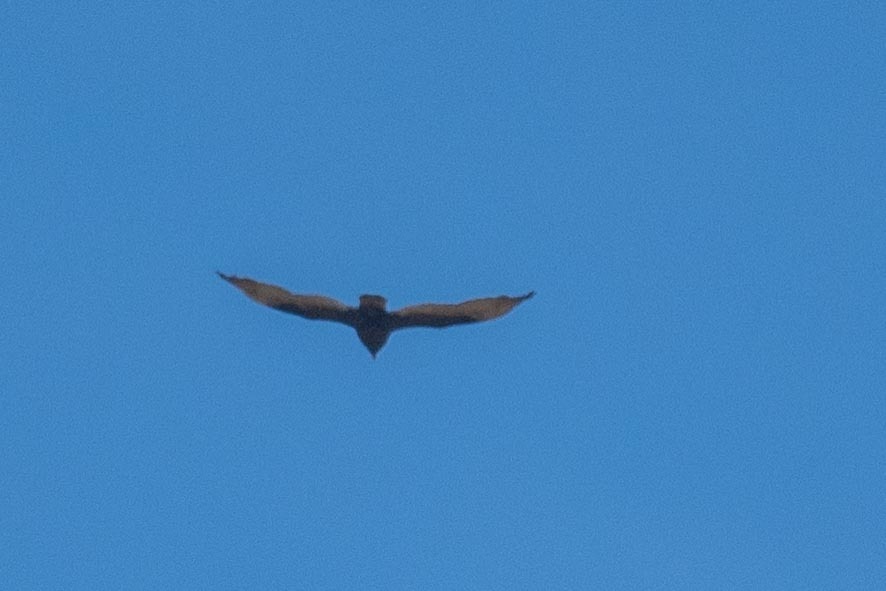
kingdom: Animalia
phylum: Chordata
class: Aves
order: Accipitriformes
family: Cathartidae
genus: Cathartes
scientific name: Cathartes aura
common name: Turkey vulture
